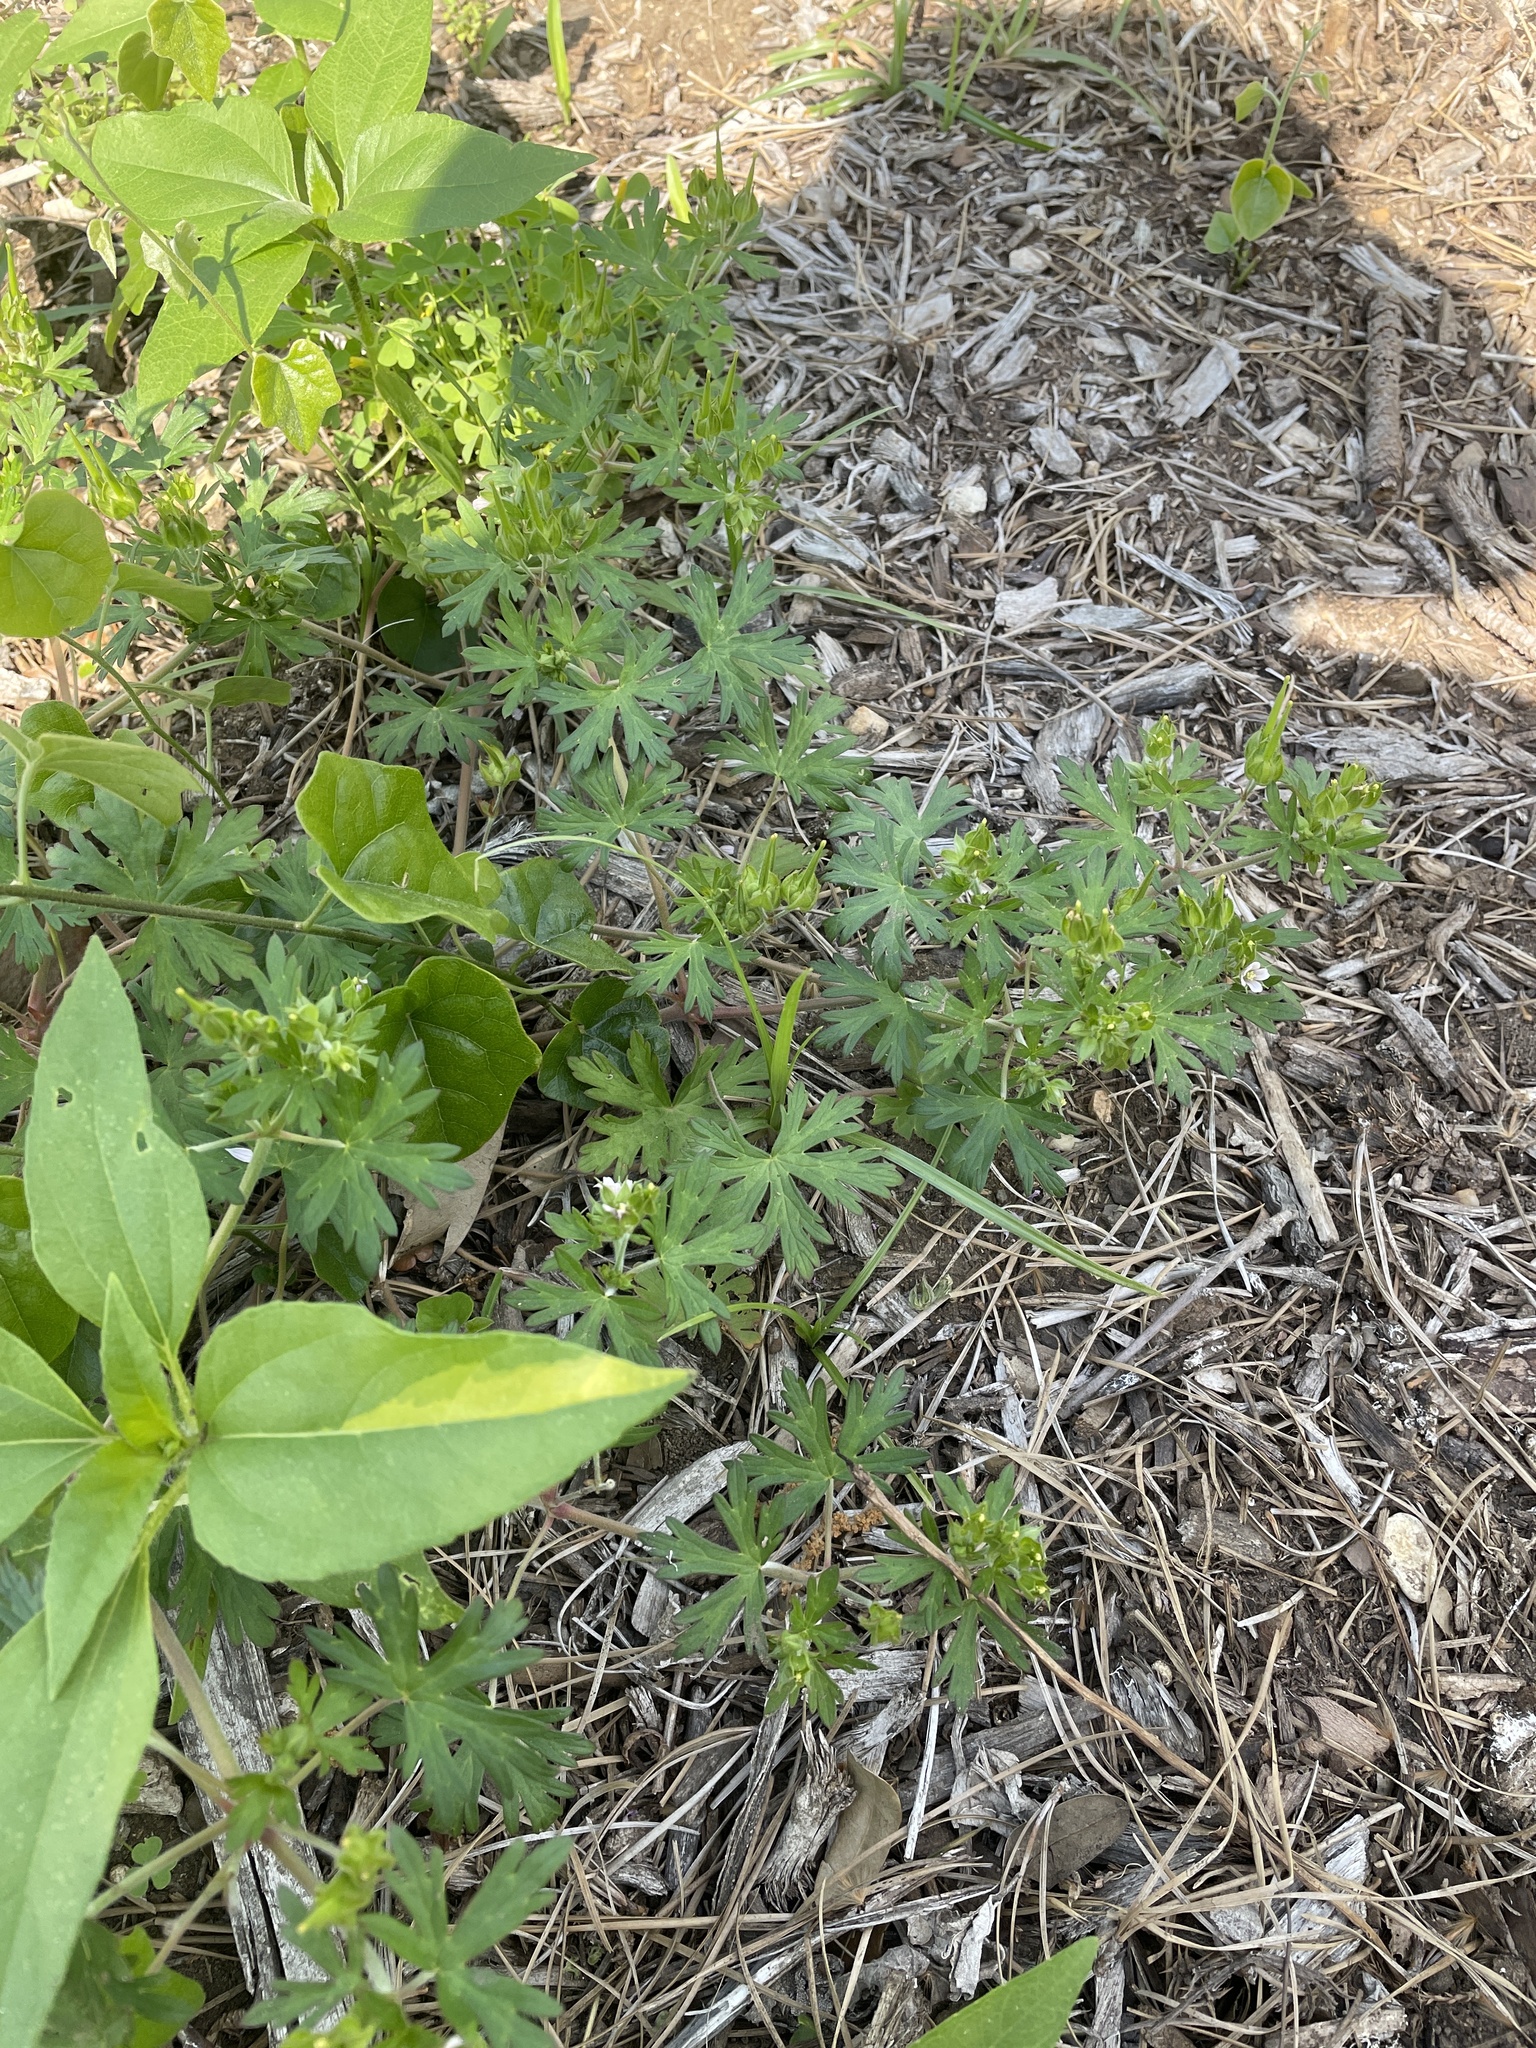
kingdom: Plantae
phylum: Tracheophyta
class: Magnoliopsida
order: Geraniales
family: Geraniaceae
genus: Geranium
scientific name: Geranium carolinianum
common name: Carolina crane's-bill
